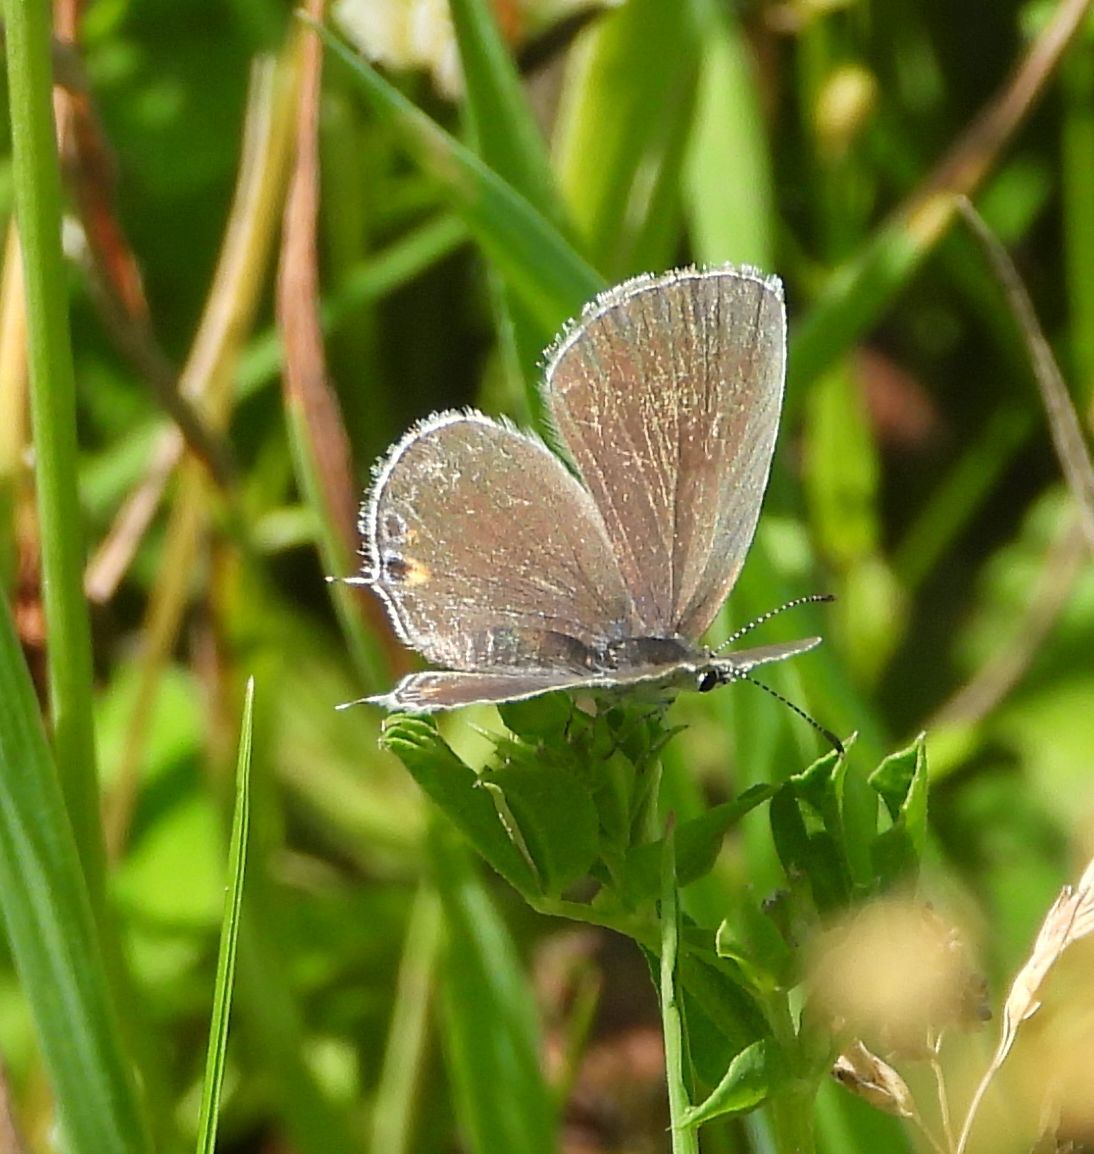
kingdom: Animalia
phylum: Arthropoda
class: Insecta
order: Lepidoptera
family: Lycaenidae
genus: Elkalyce
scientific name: Elkalyce comyntas
